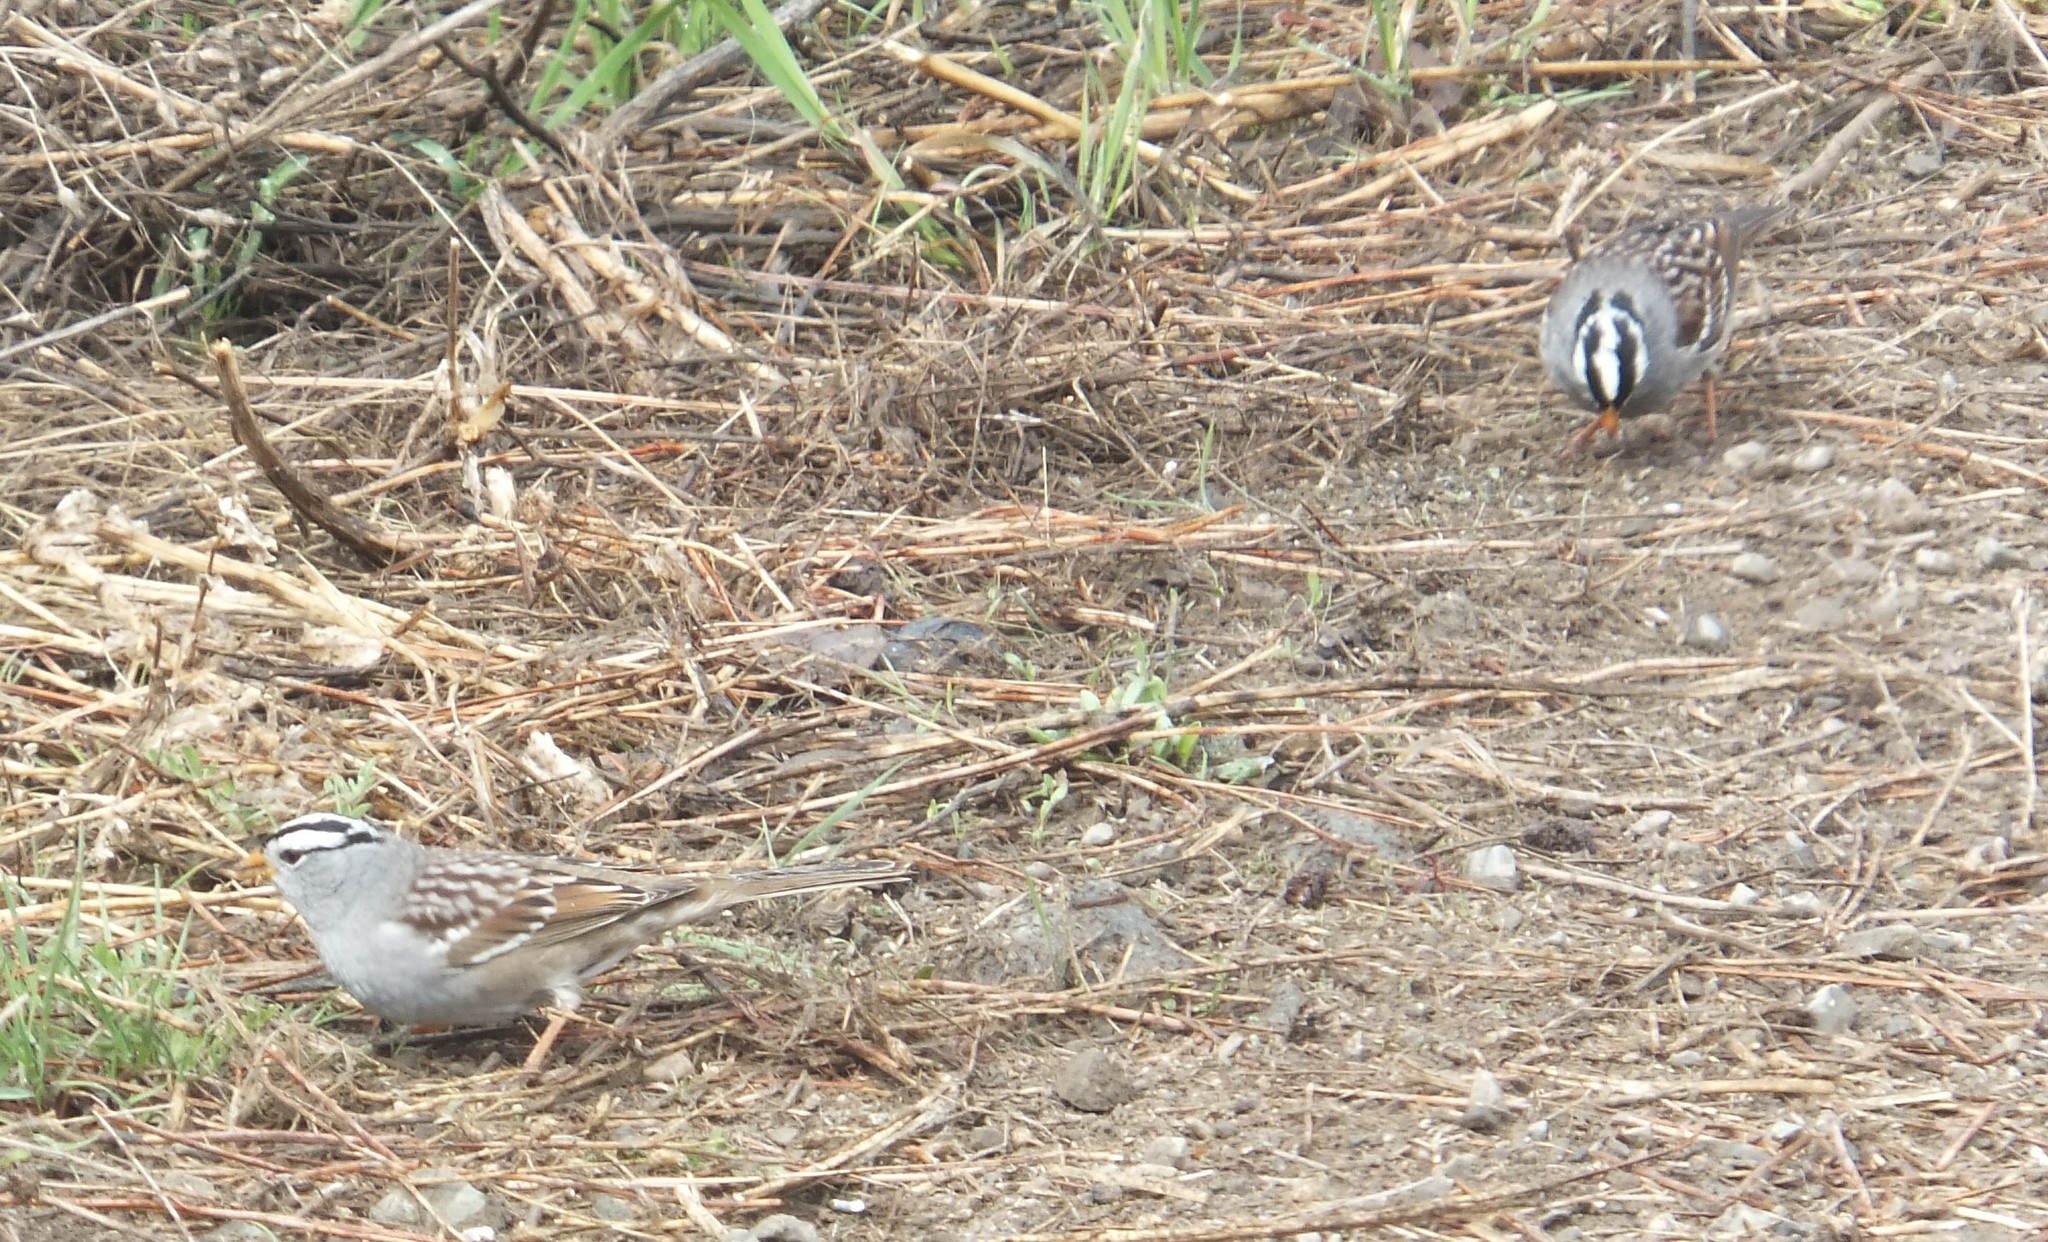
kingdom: Animalia
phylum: Chordata
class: Aves
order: Passeriformes
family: Passerellidae
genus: Zonotrichia
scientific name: Zonotrichia leucophrys
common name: White-crowned sparrow
